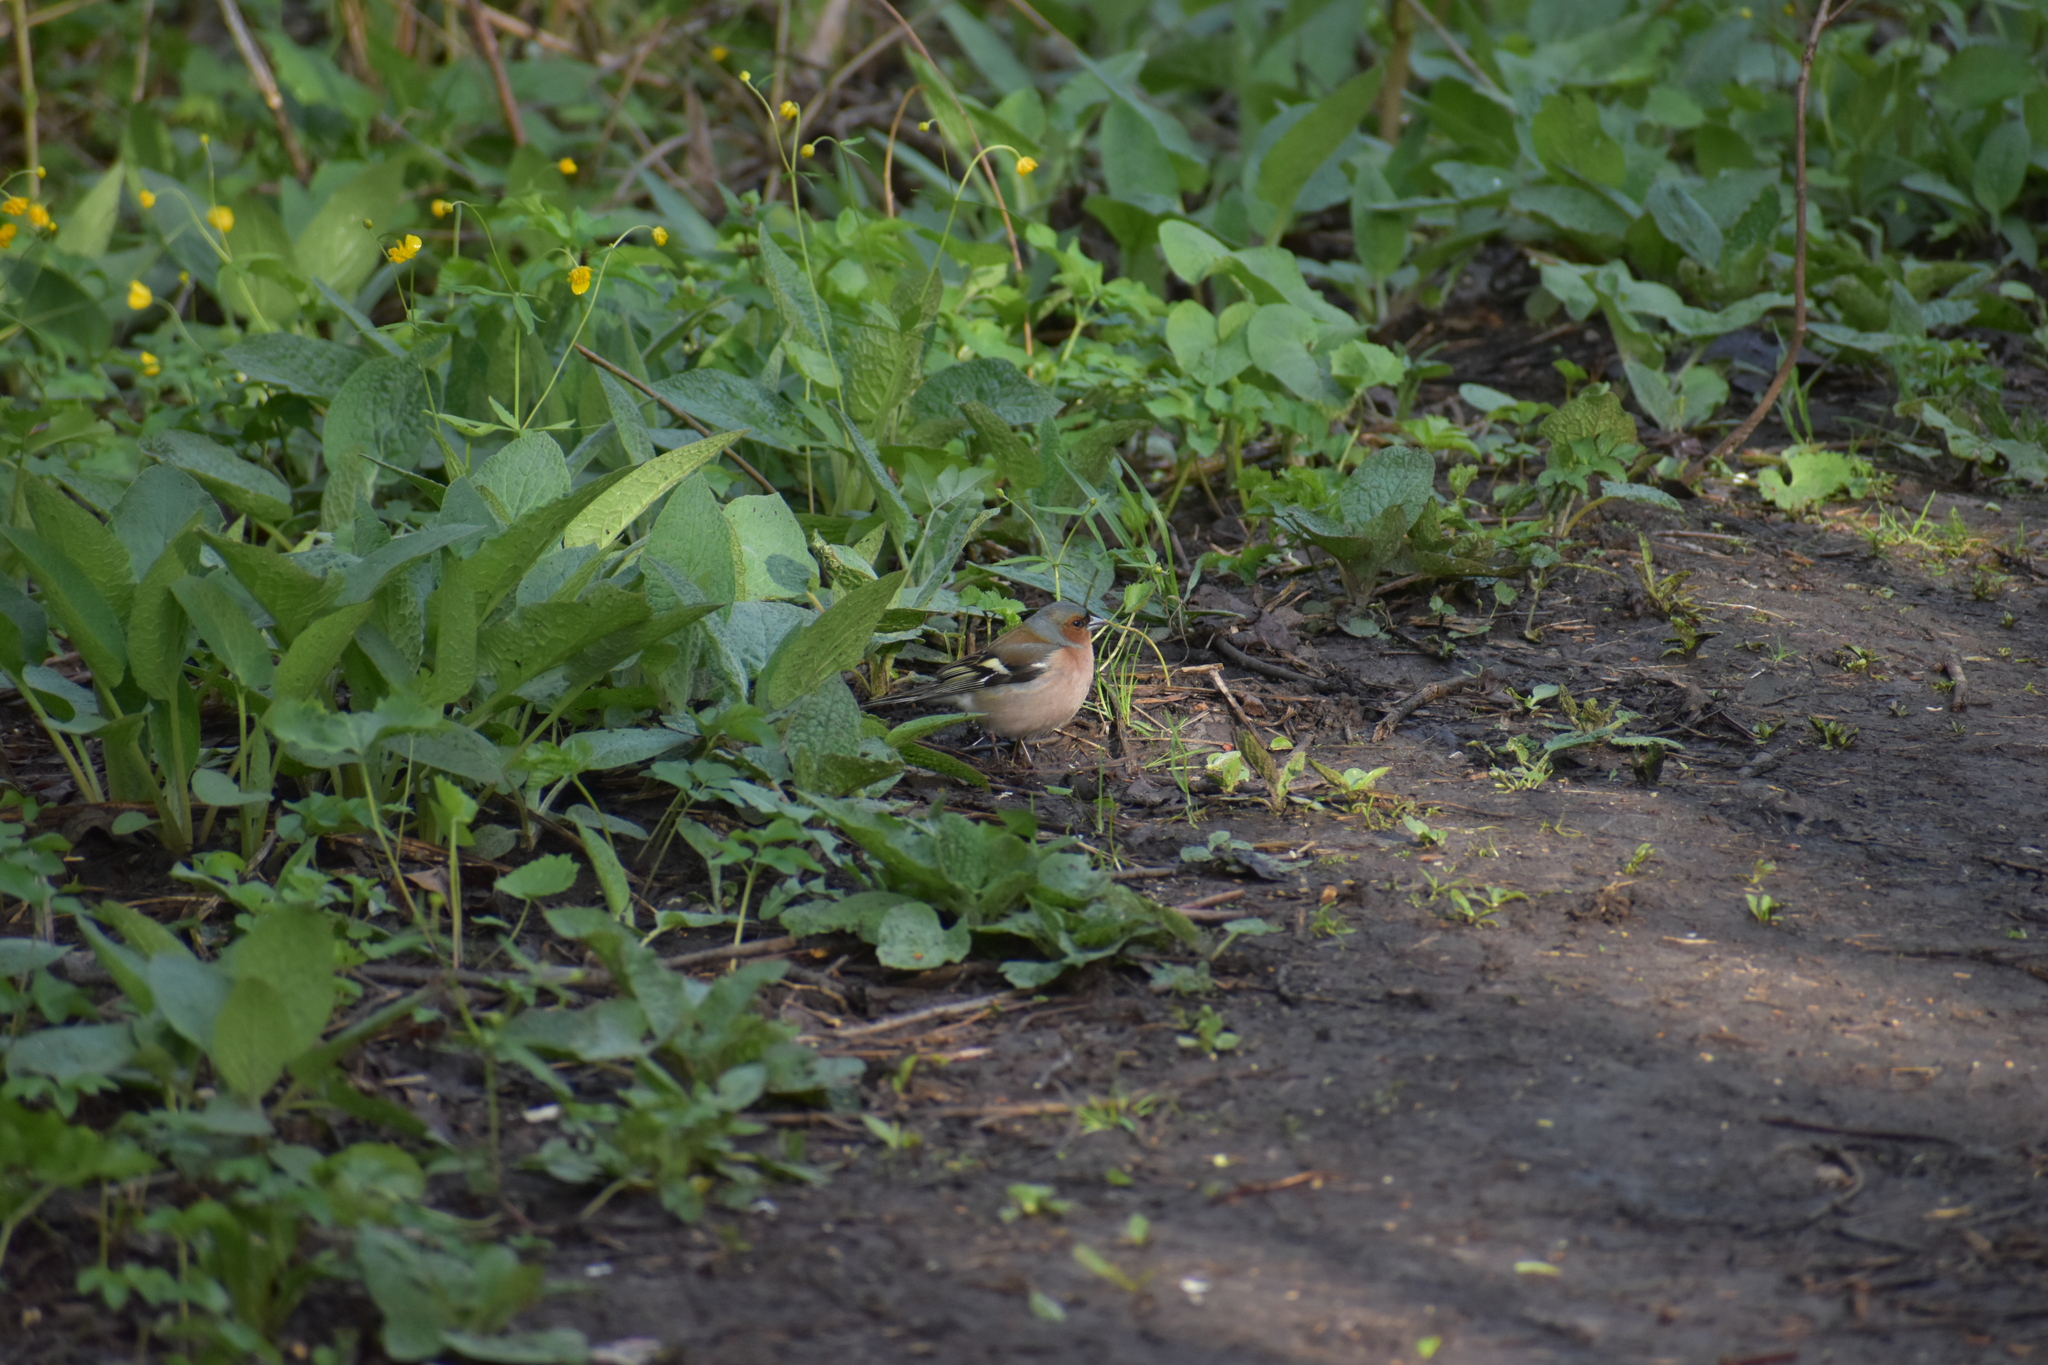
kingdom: Animalia
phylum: Chordata
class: Aves
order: Passeriformes
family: Fringillidae
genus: Fringilla
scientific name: Fringilla coelebs
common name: Common chaffinch
